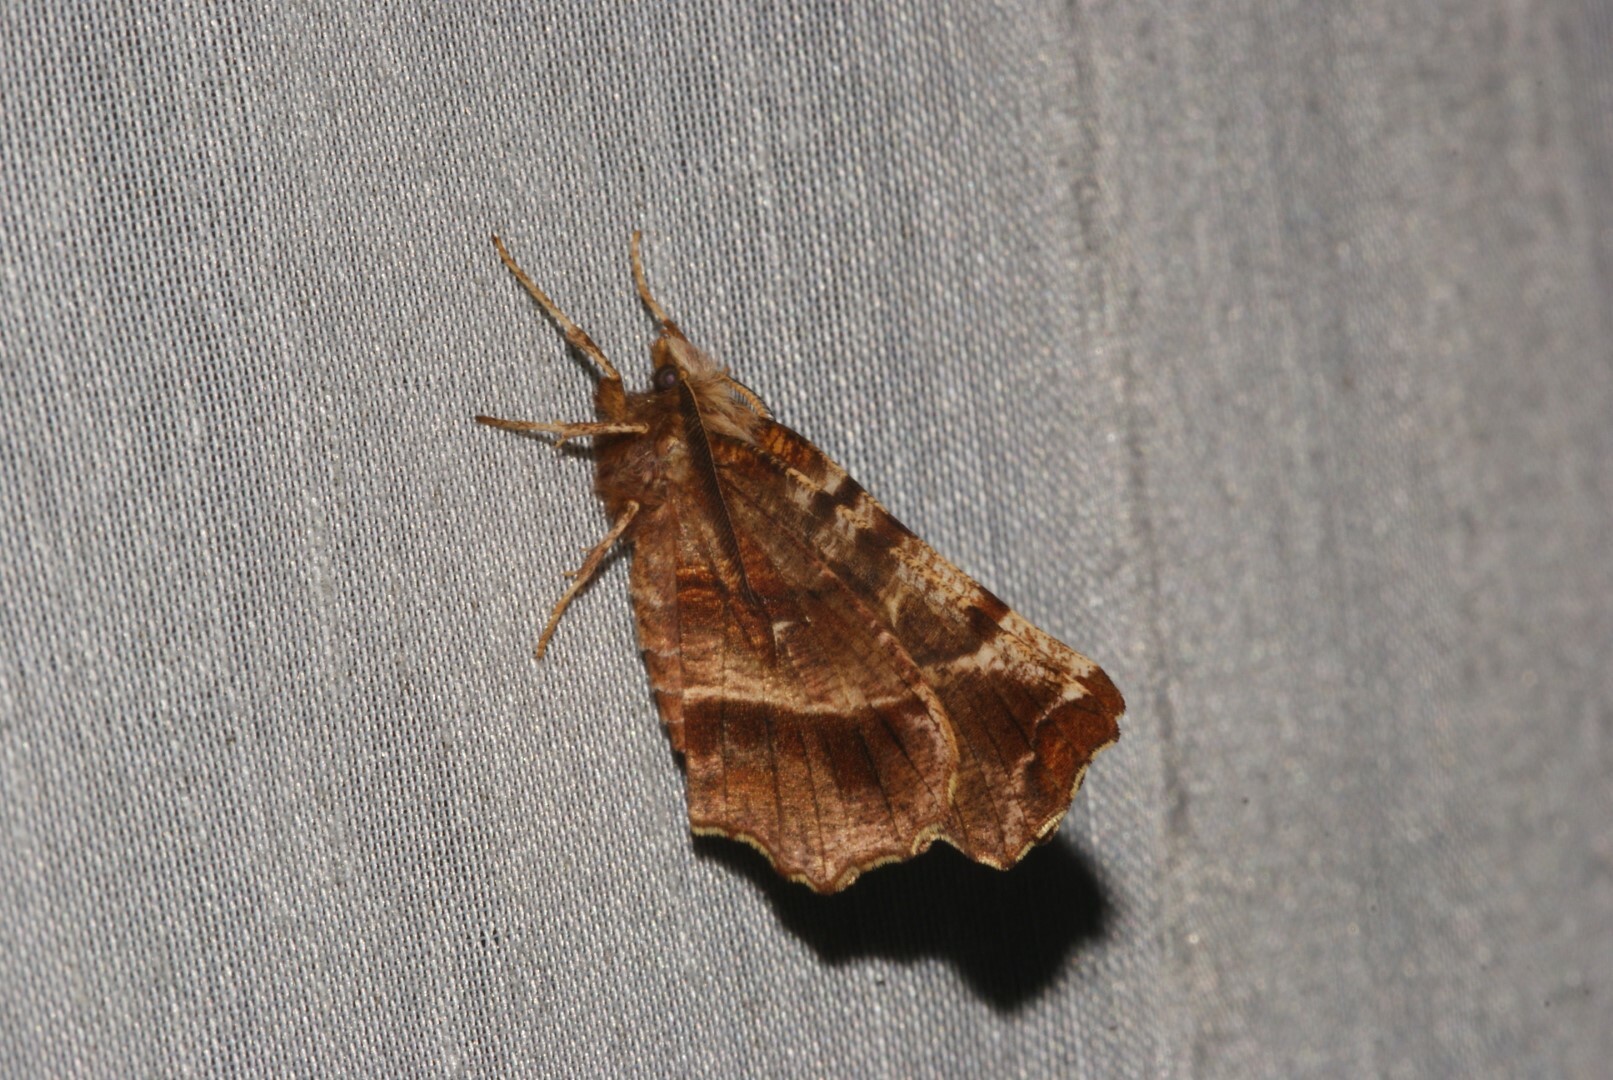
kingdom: Animalia
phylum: Arthropoda
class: Insecta
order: Lepidoptera
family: Geometridae
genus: Selenia
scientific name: Selenia dentaria
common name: Early thorn
